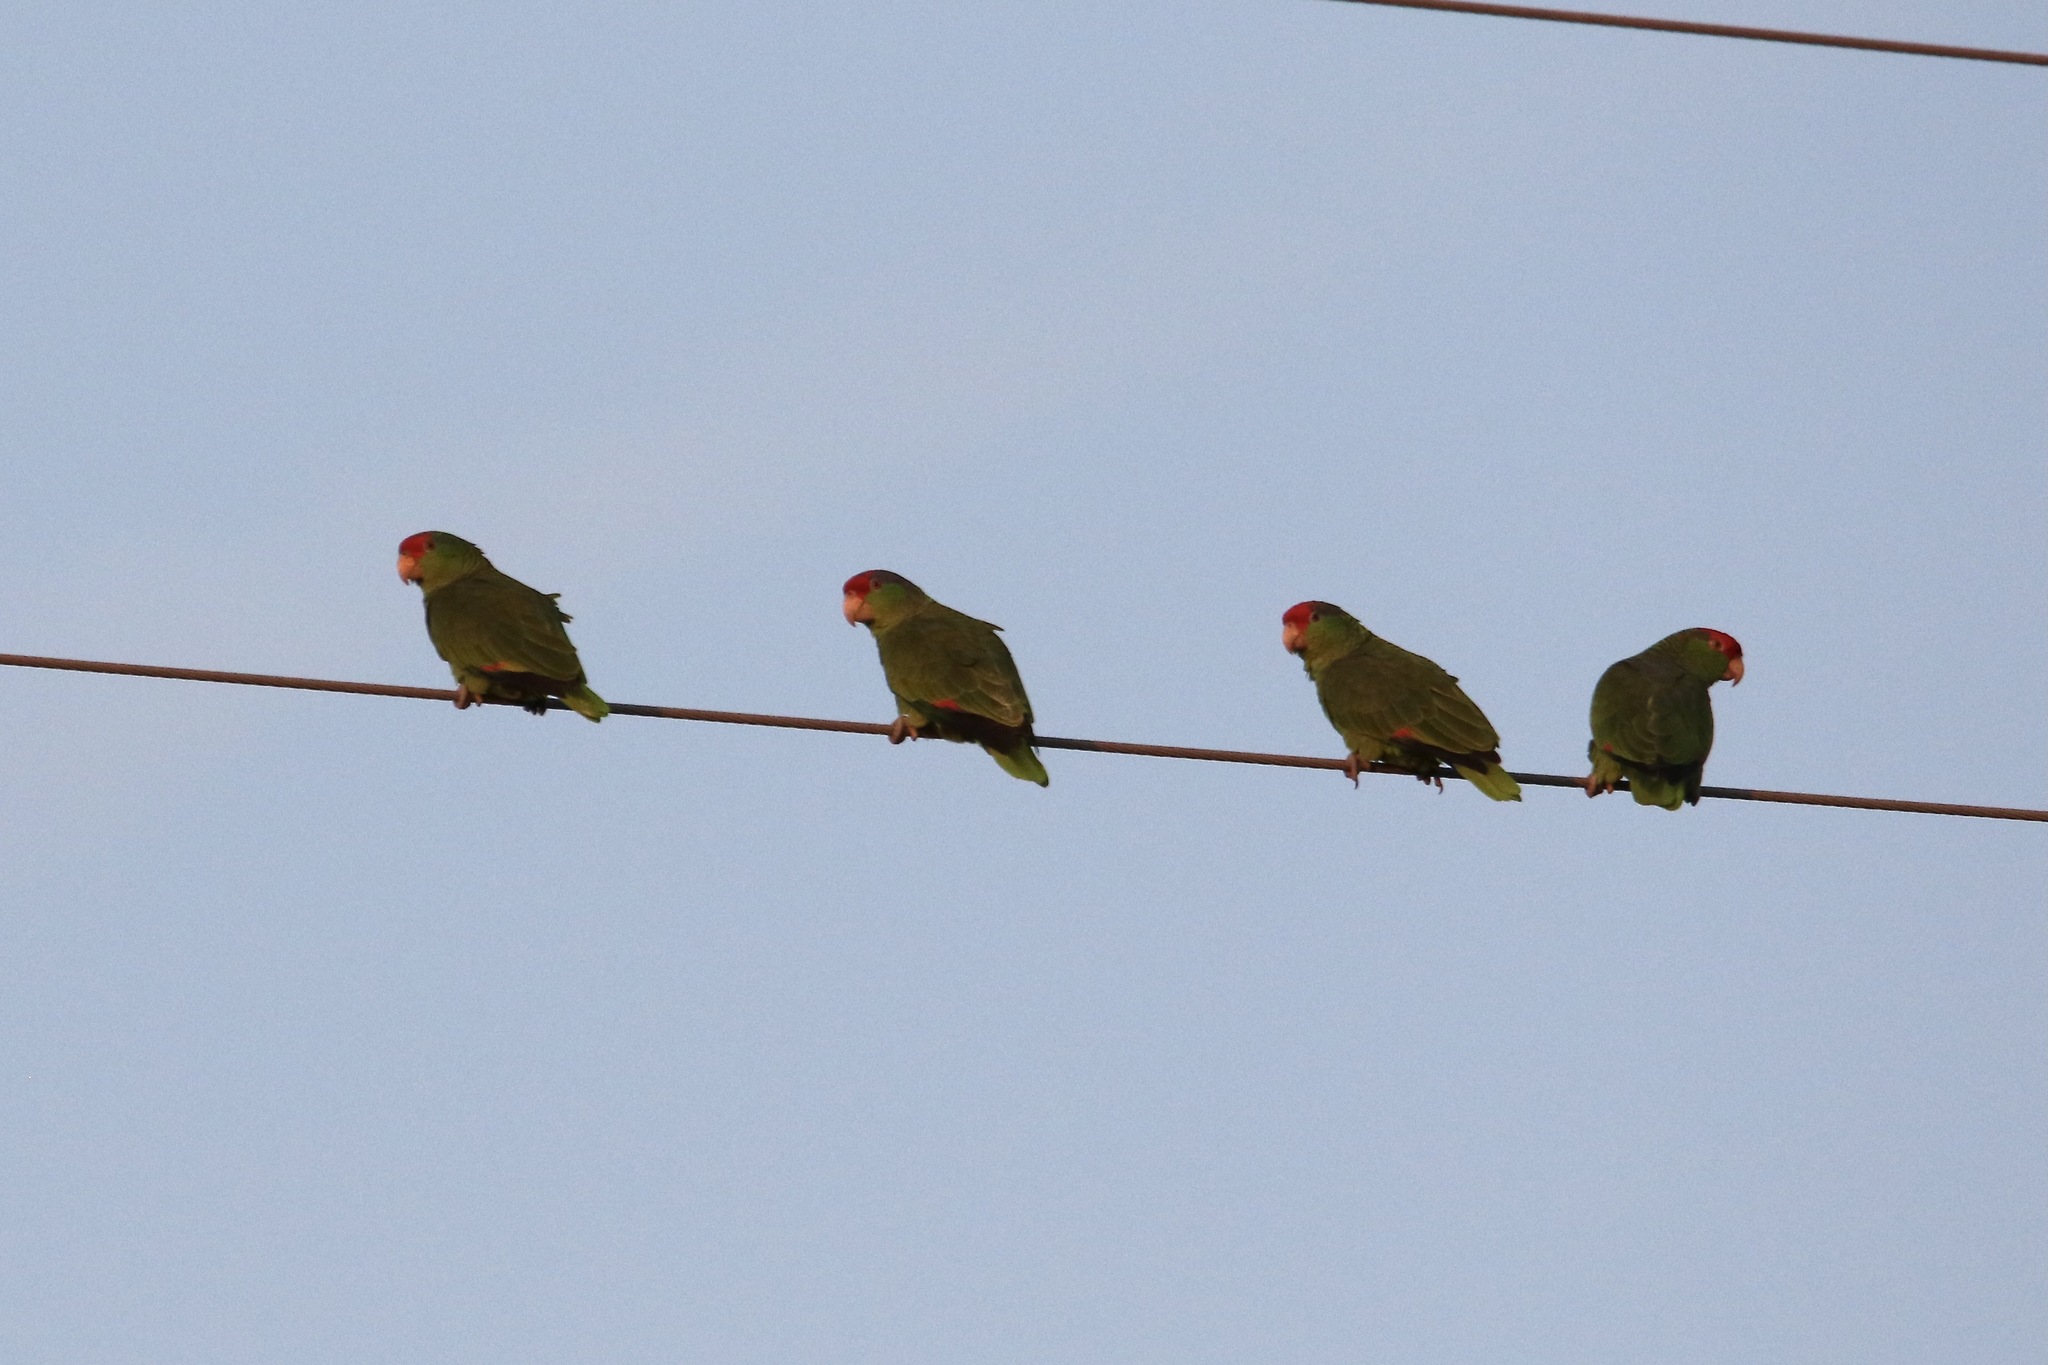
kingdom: Animalia
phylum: Chordata
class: Aves
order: Psittaciformes
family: Psittacidae
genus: Amazona
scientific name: Amazona viridigenalis
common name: Red-crowned amazon
